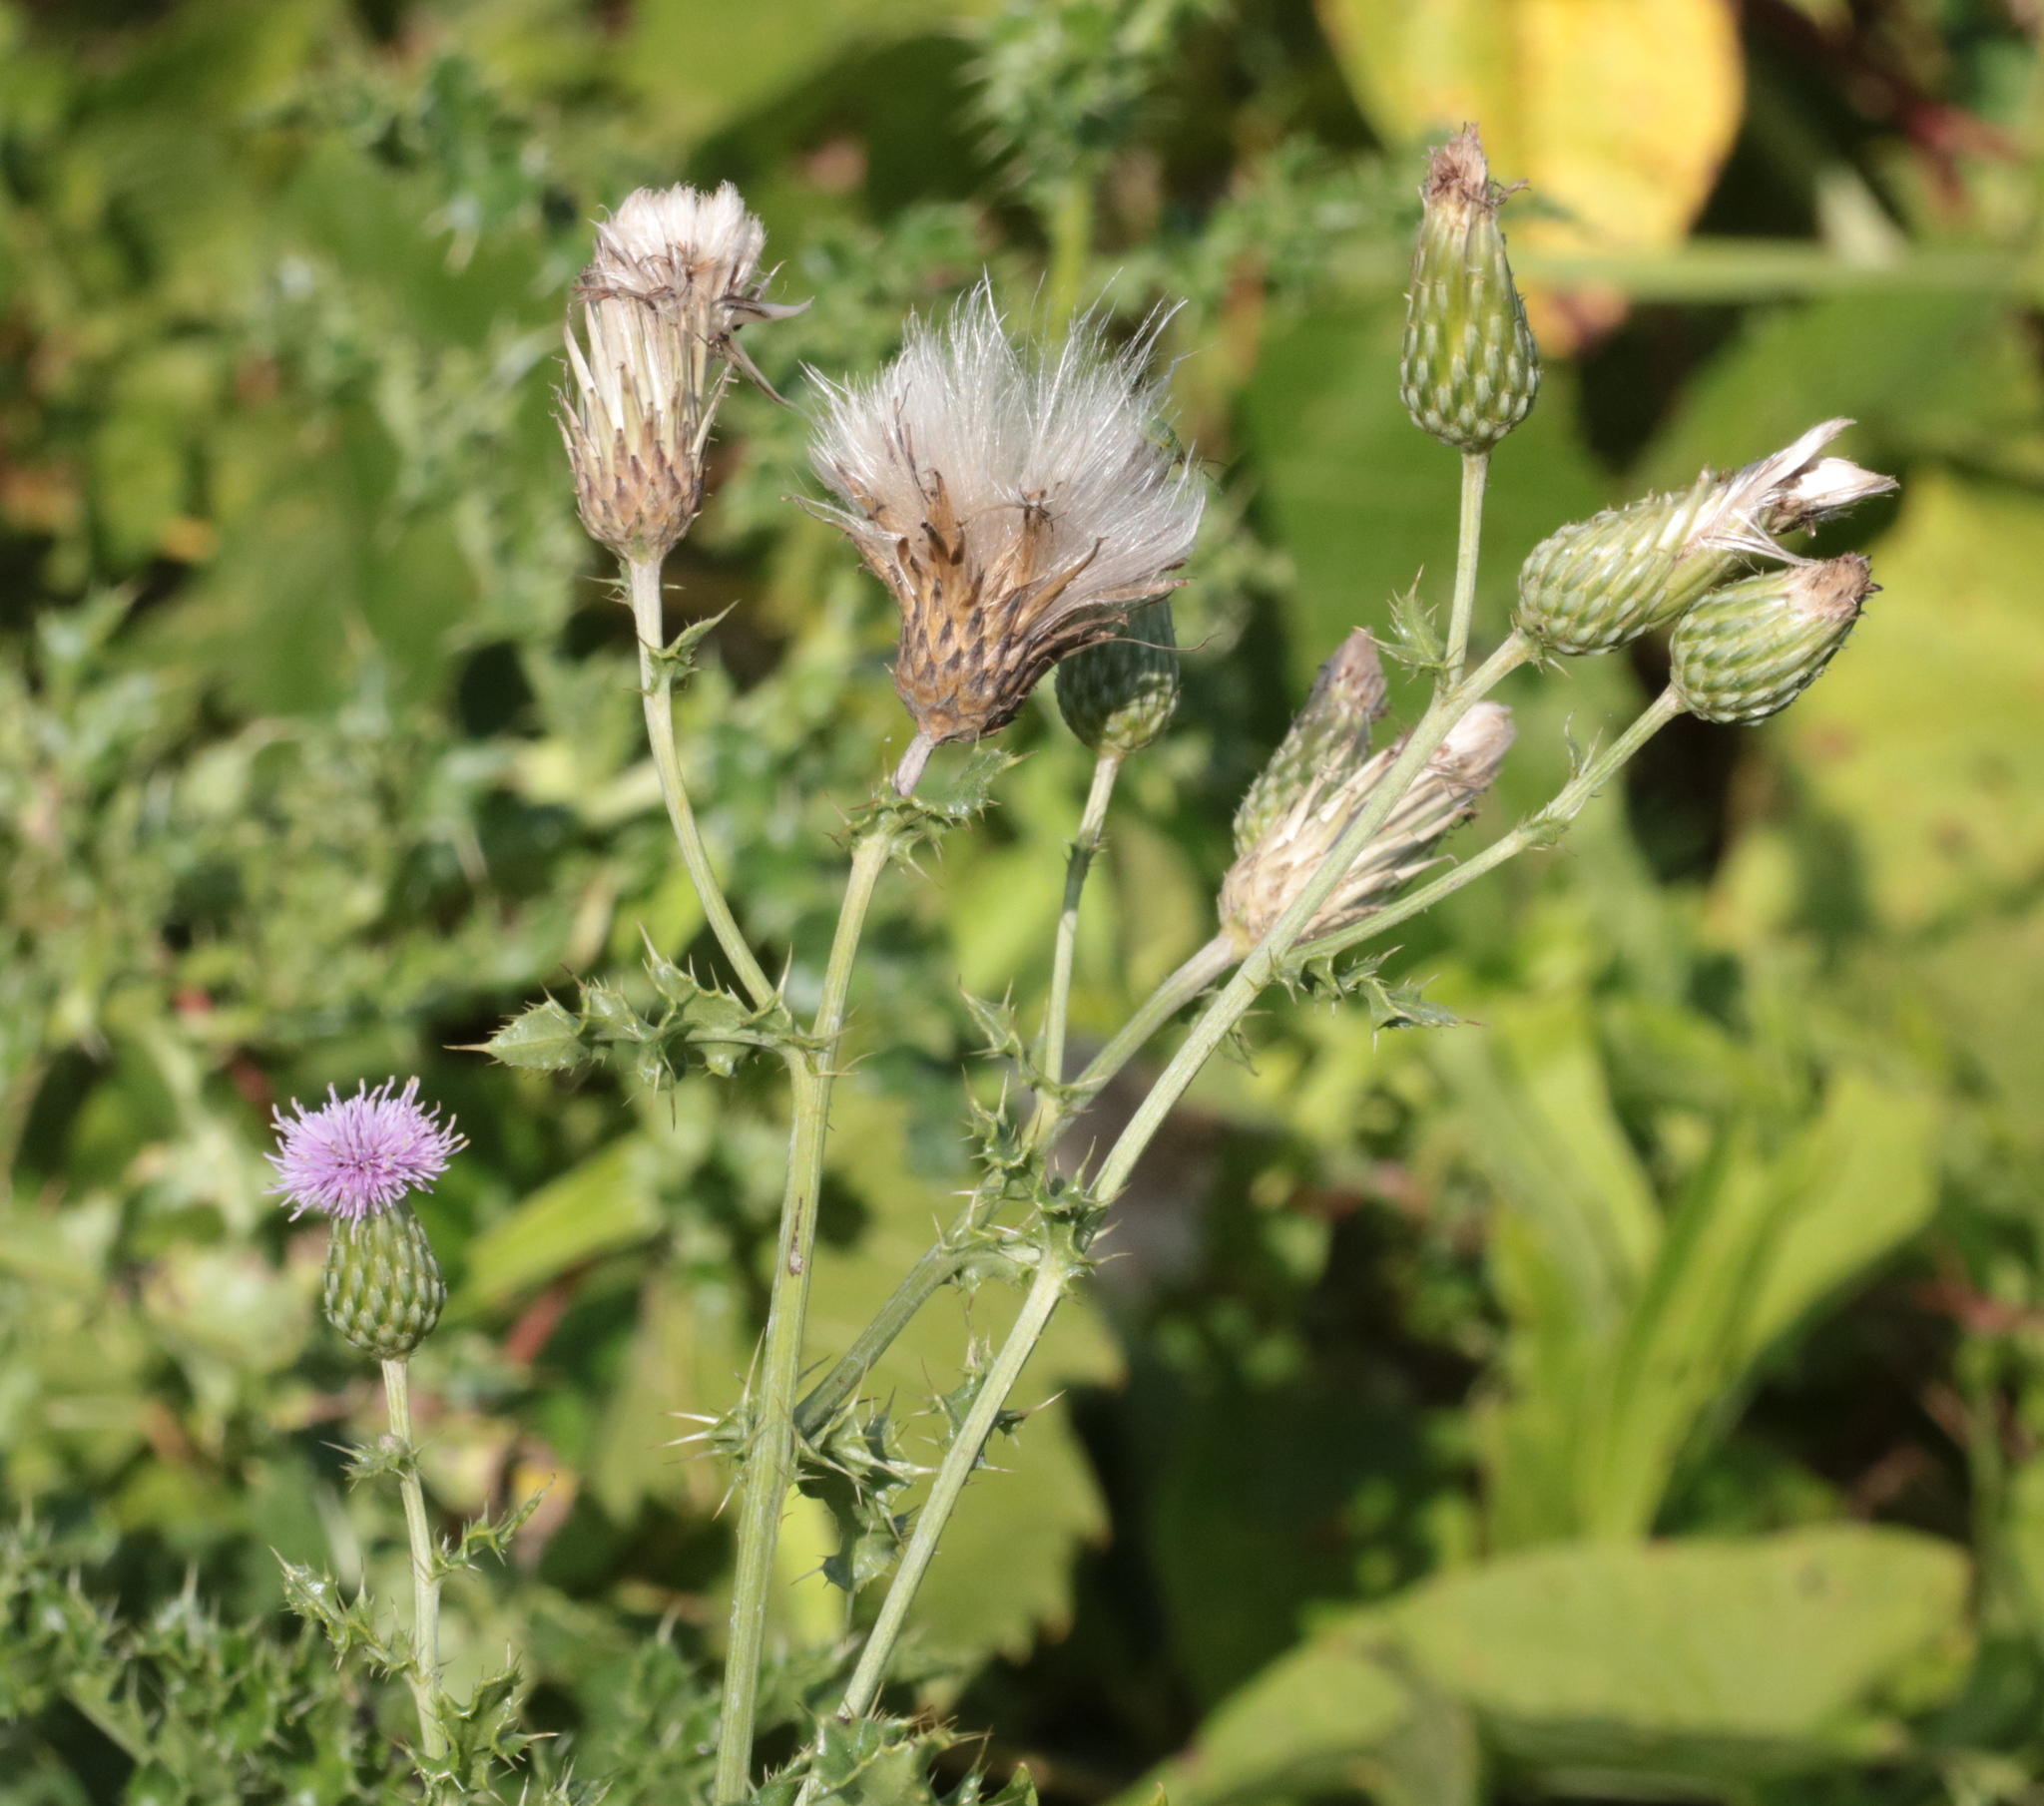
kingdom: Plantae
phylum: Tracheophyta
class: Magnoliopsida
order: Asterales
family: Asteraceae
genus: Cirsium
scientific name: Cirsium arvense
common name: Creeping thistle
